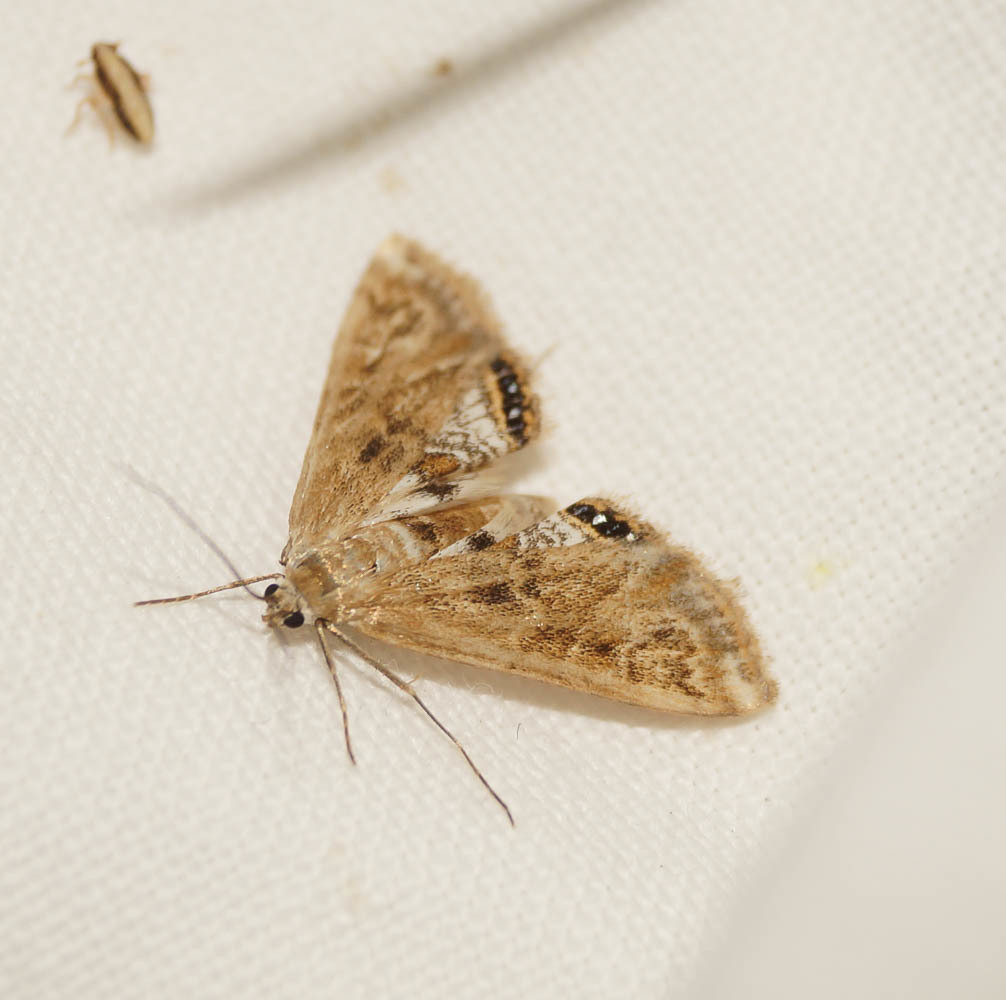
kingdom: Animalia
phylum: Arthropoda
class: Insecta
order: Lepidoptera
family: Crambidae
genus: Cataclysta
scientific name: Cataclysta lemnata
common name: Small china-mark
